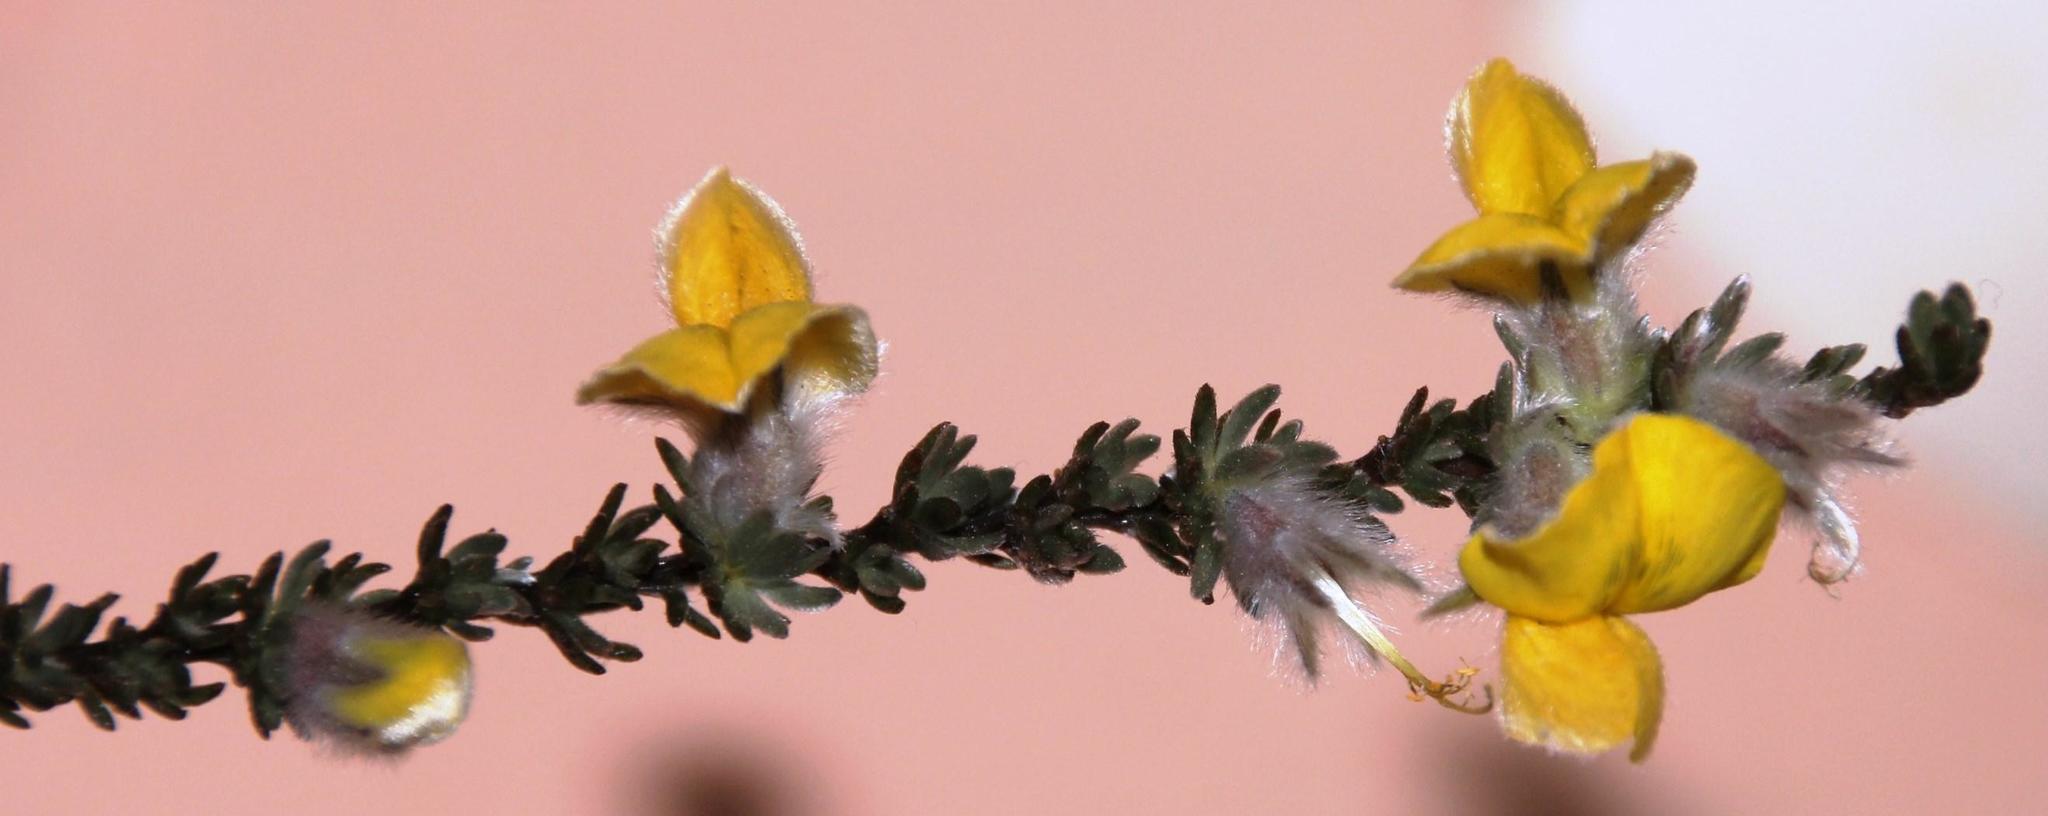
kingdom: Plantae
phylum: Tracheophyta
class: Magnoliopsida
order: Fabales
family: Fabaceae
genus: Aspalathus
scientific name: Aspalathus caledonensis
